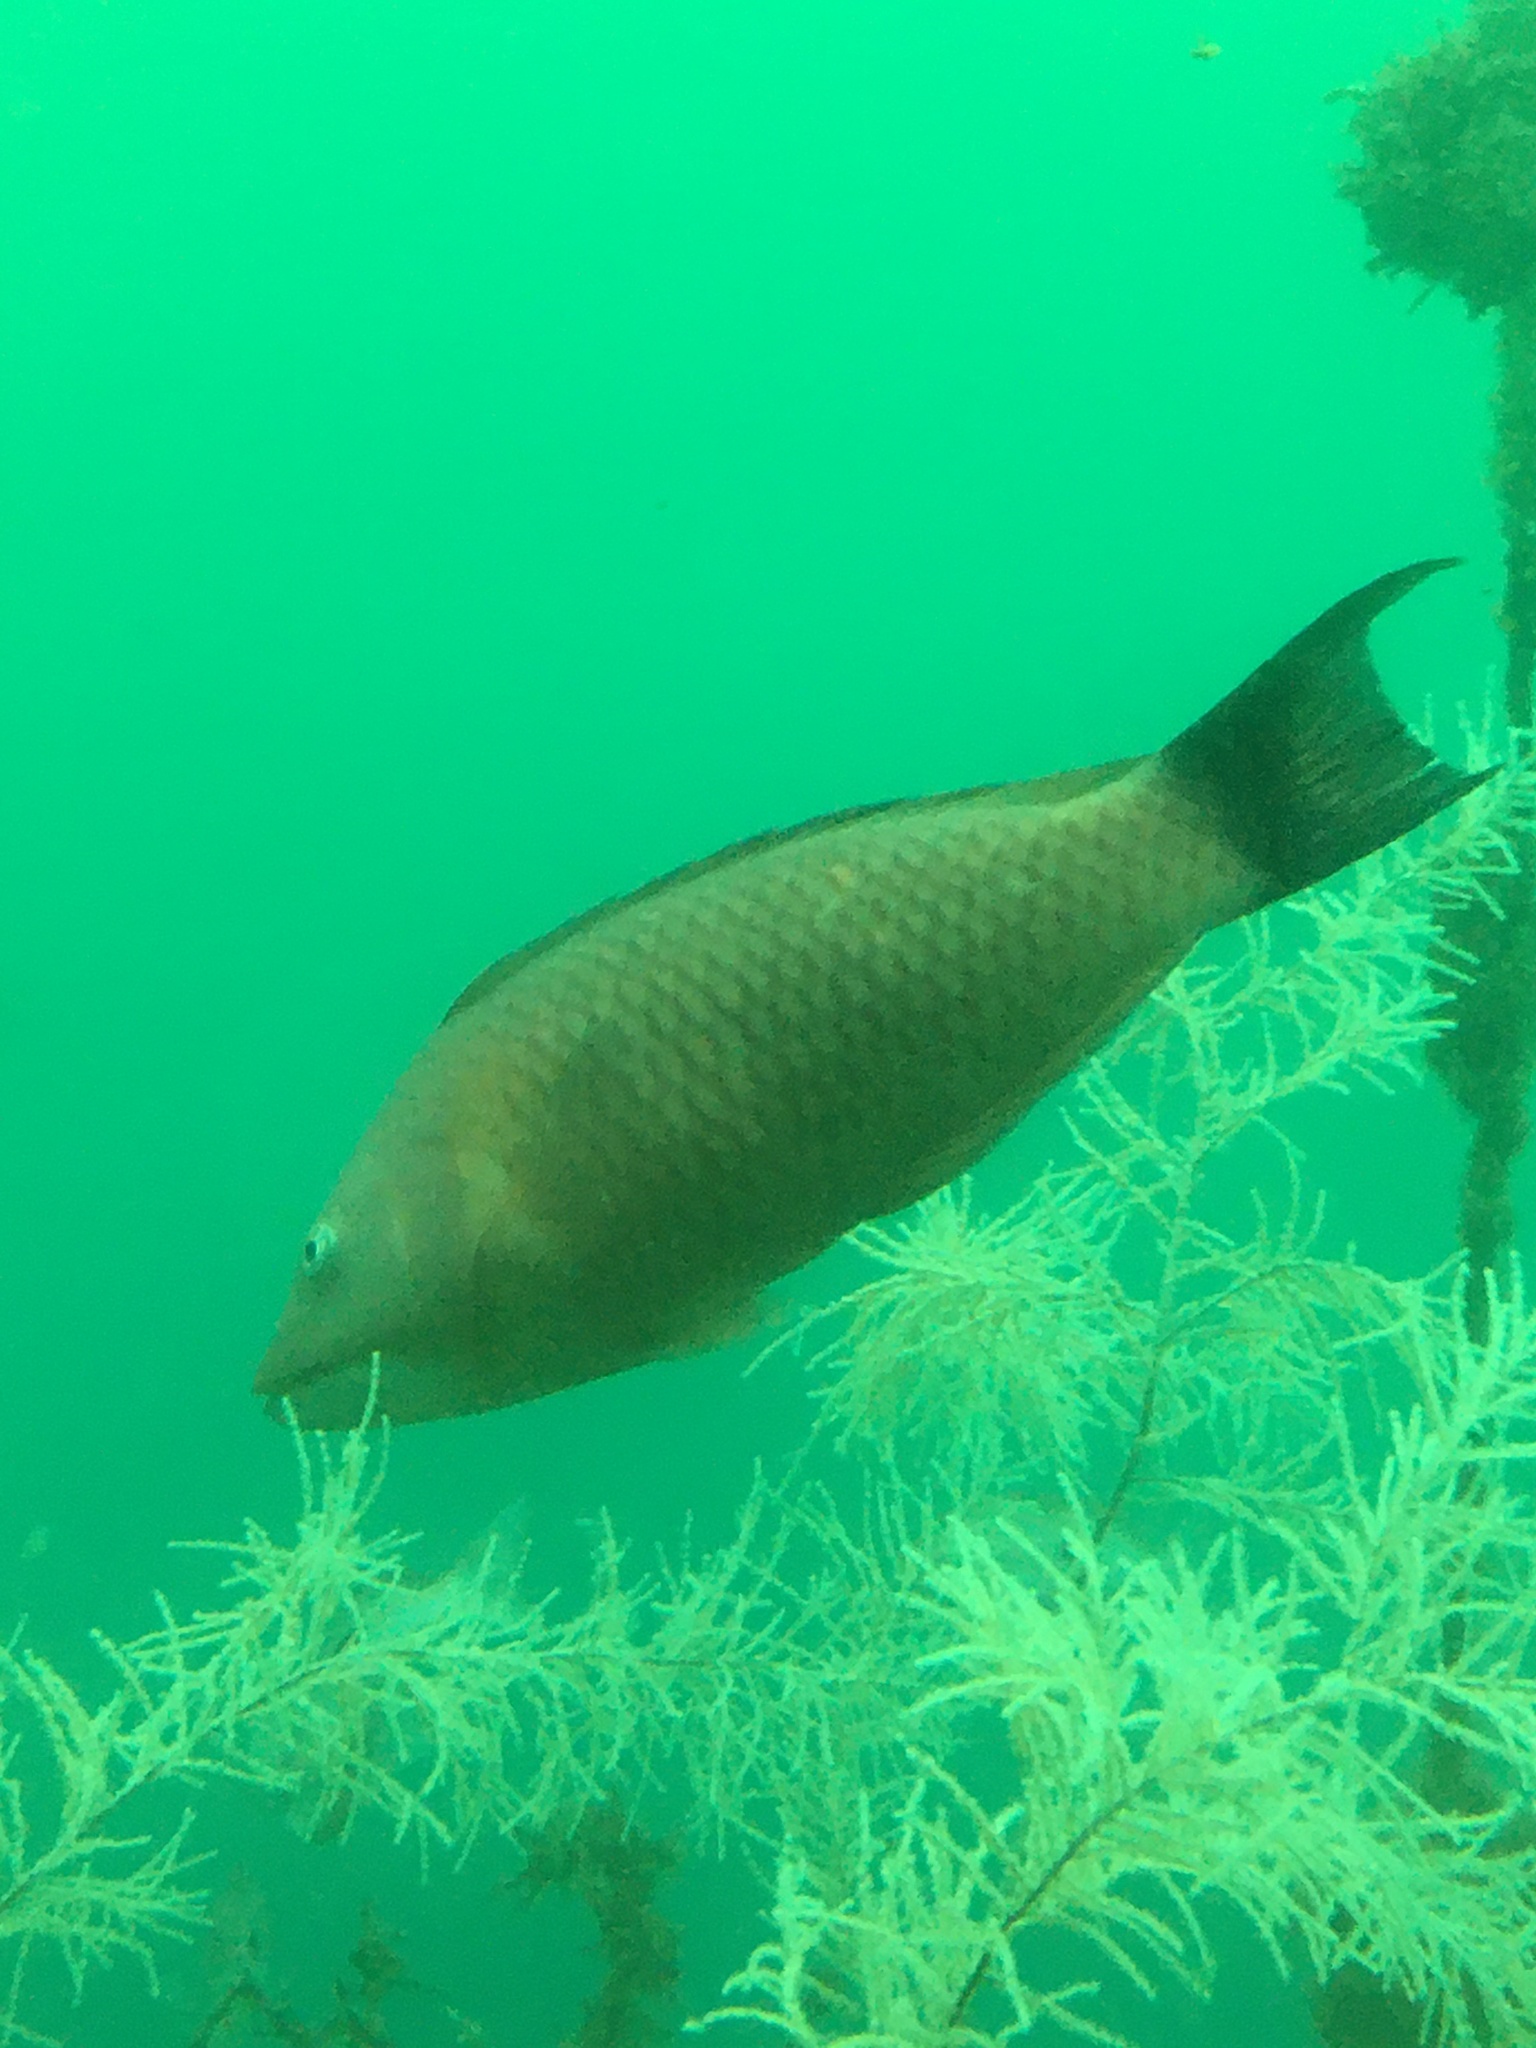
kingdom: Animalia
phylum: Chordata
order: Perciformes
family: Labridae
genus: Pseudolabrus
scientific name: Pseudolabrus miles
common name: Scarlet wrasse
